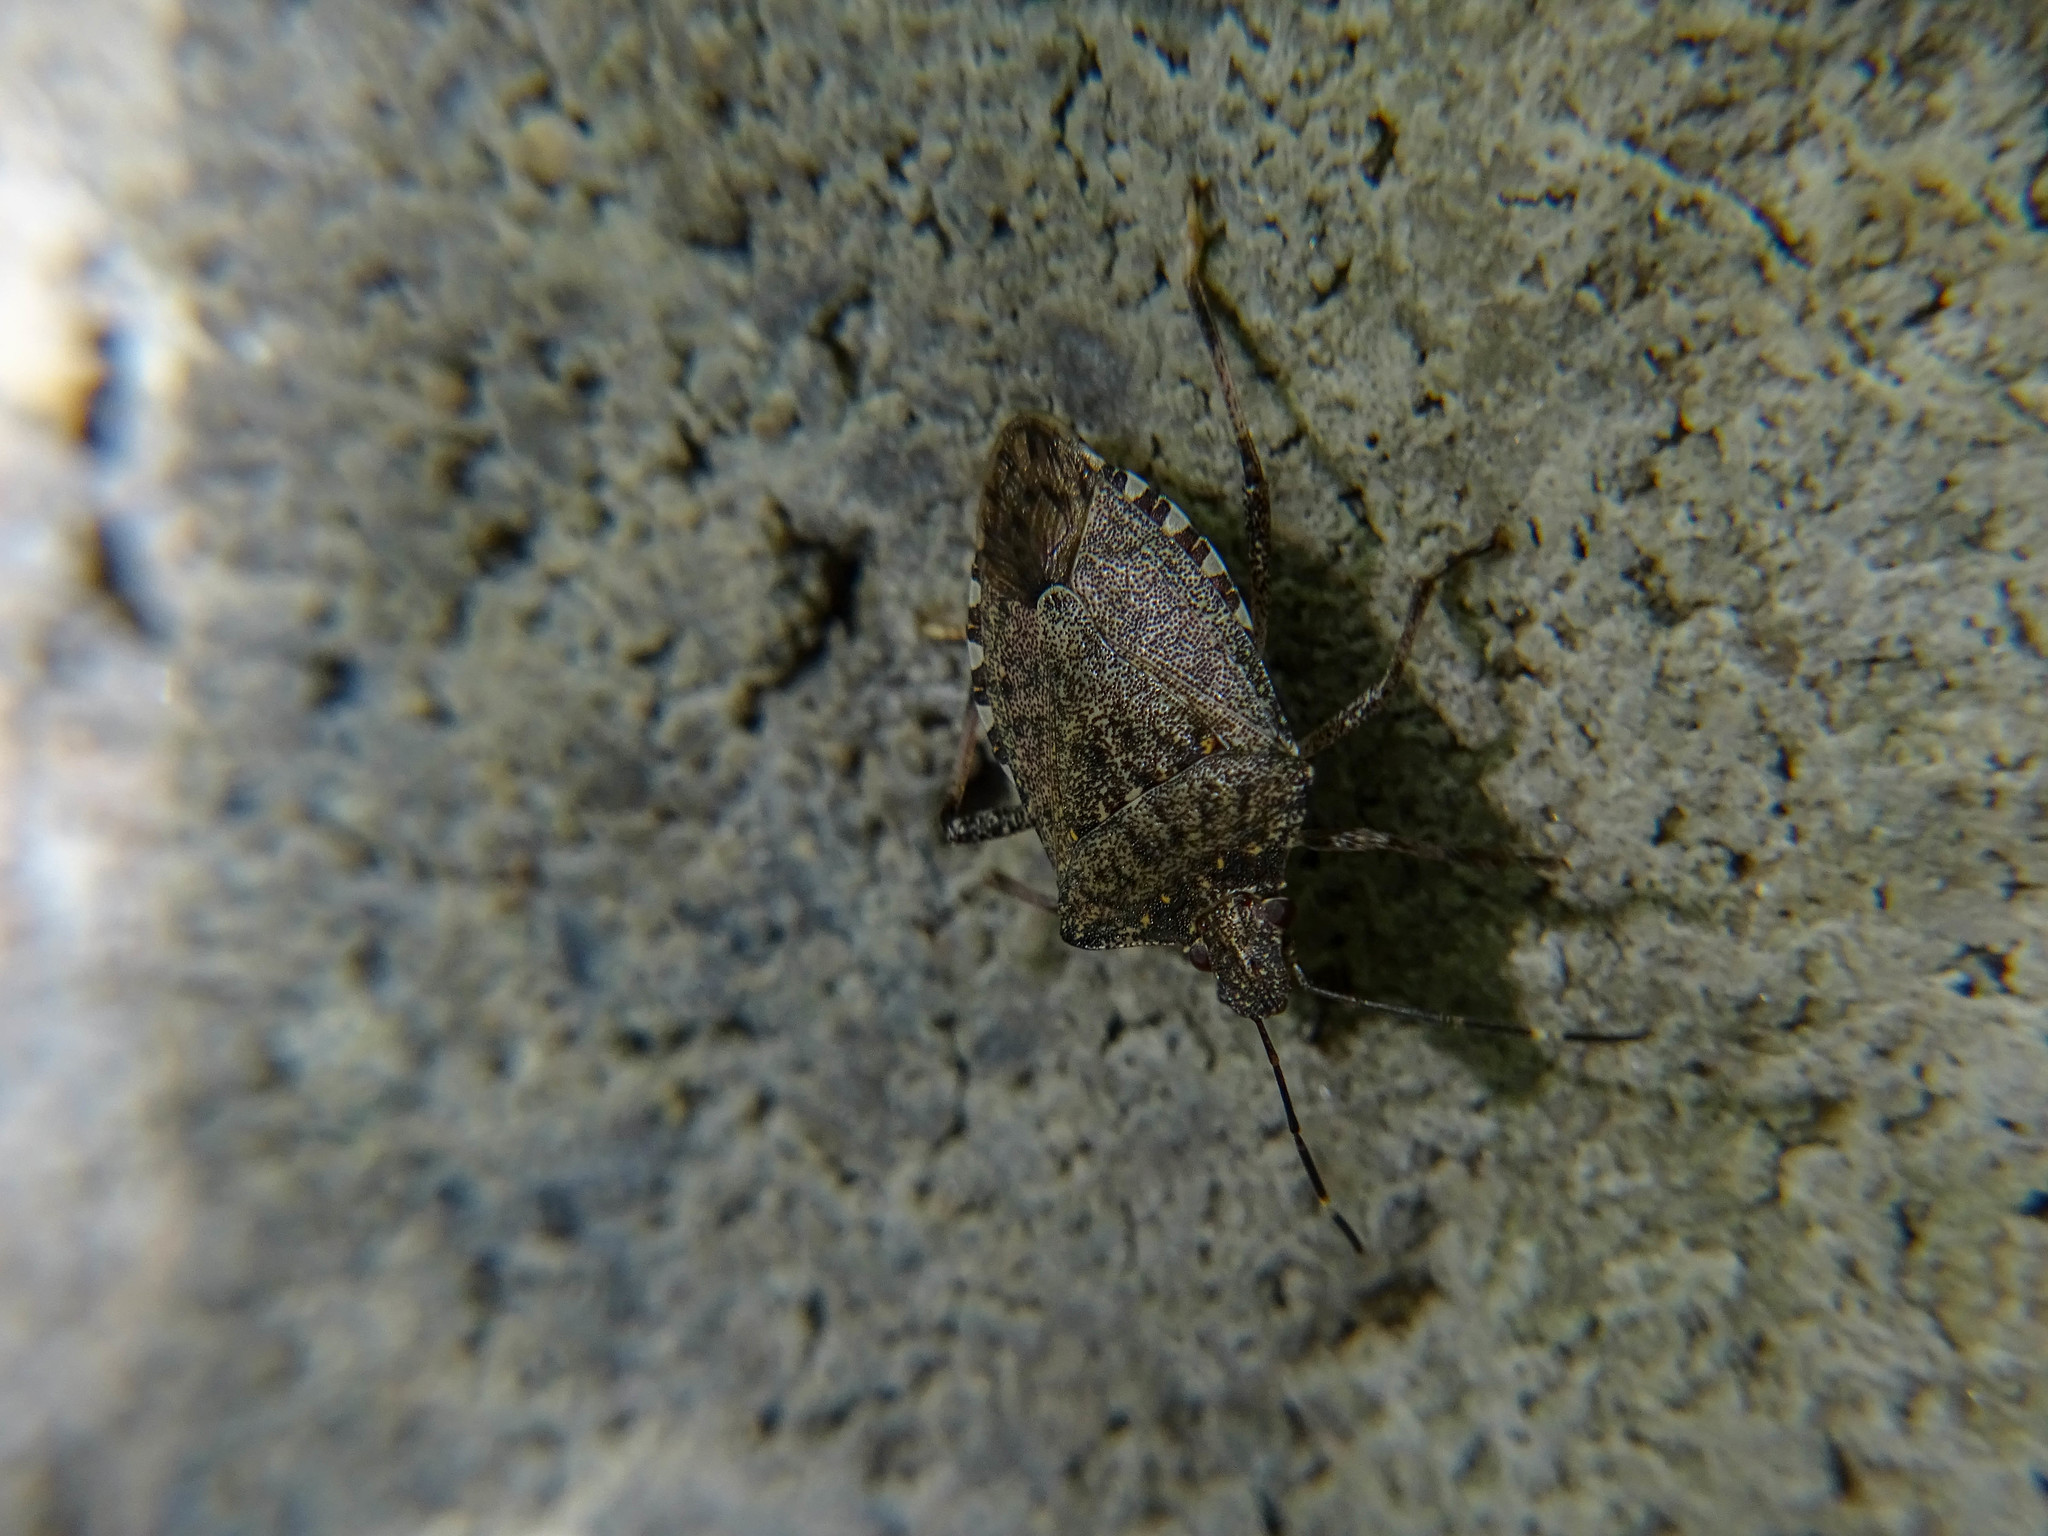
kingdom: Animalia
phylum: Arthropoda
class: Insecta
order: Hemiptera
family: Pentatomidae
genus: Halyomorpha
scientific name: Halyomorpha halys
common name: Brown marmorated stink bug
